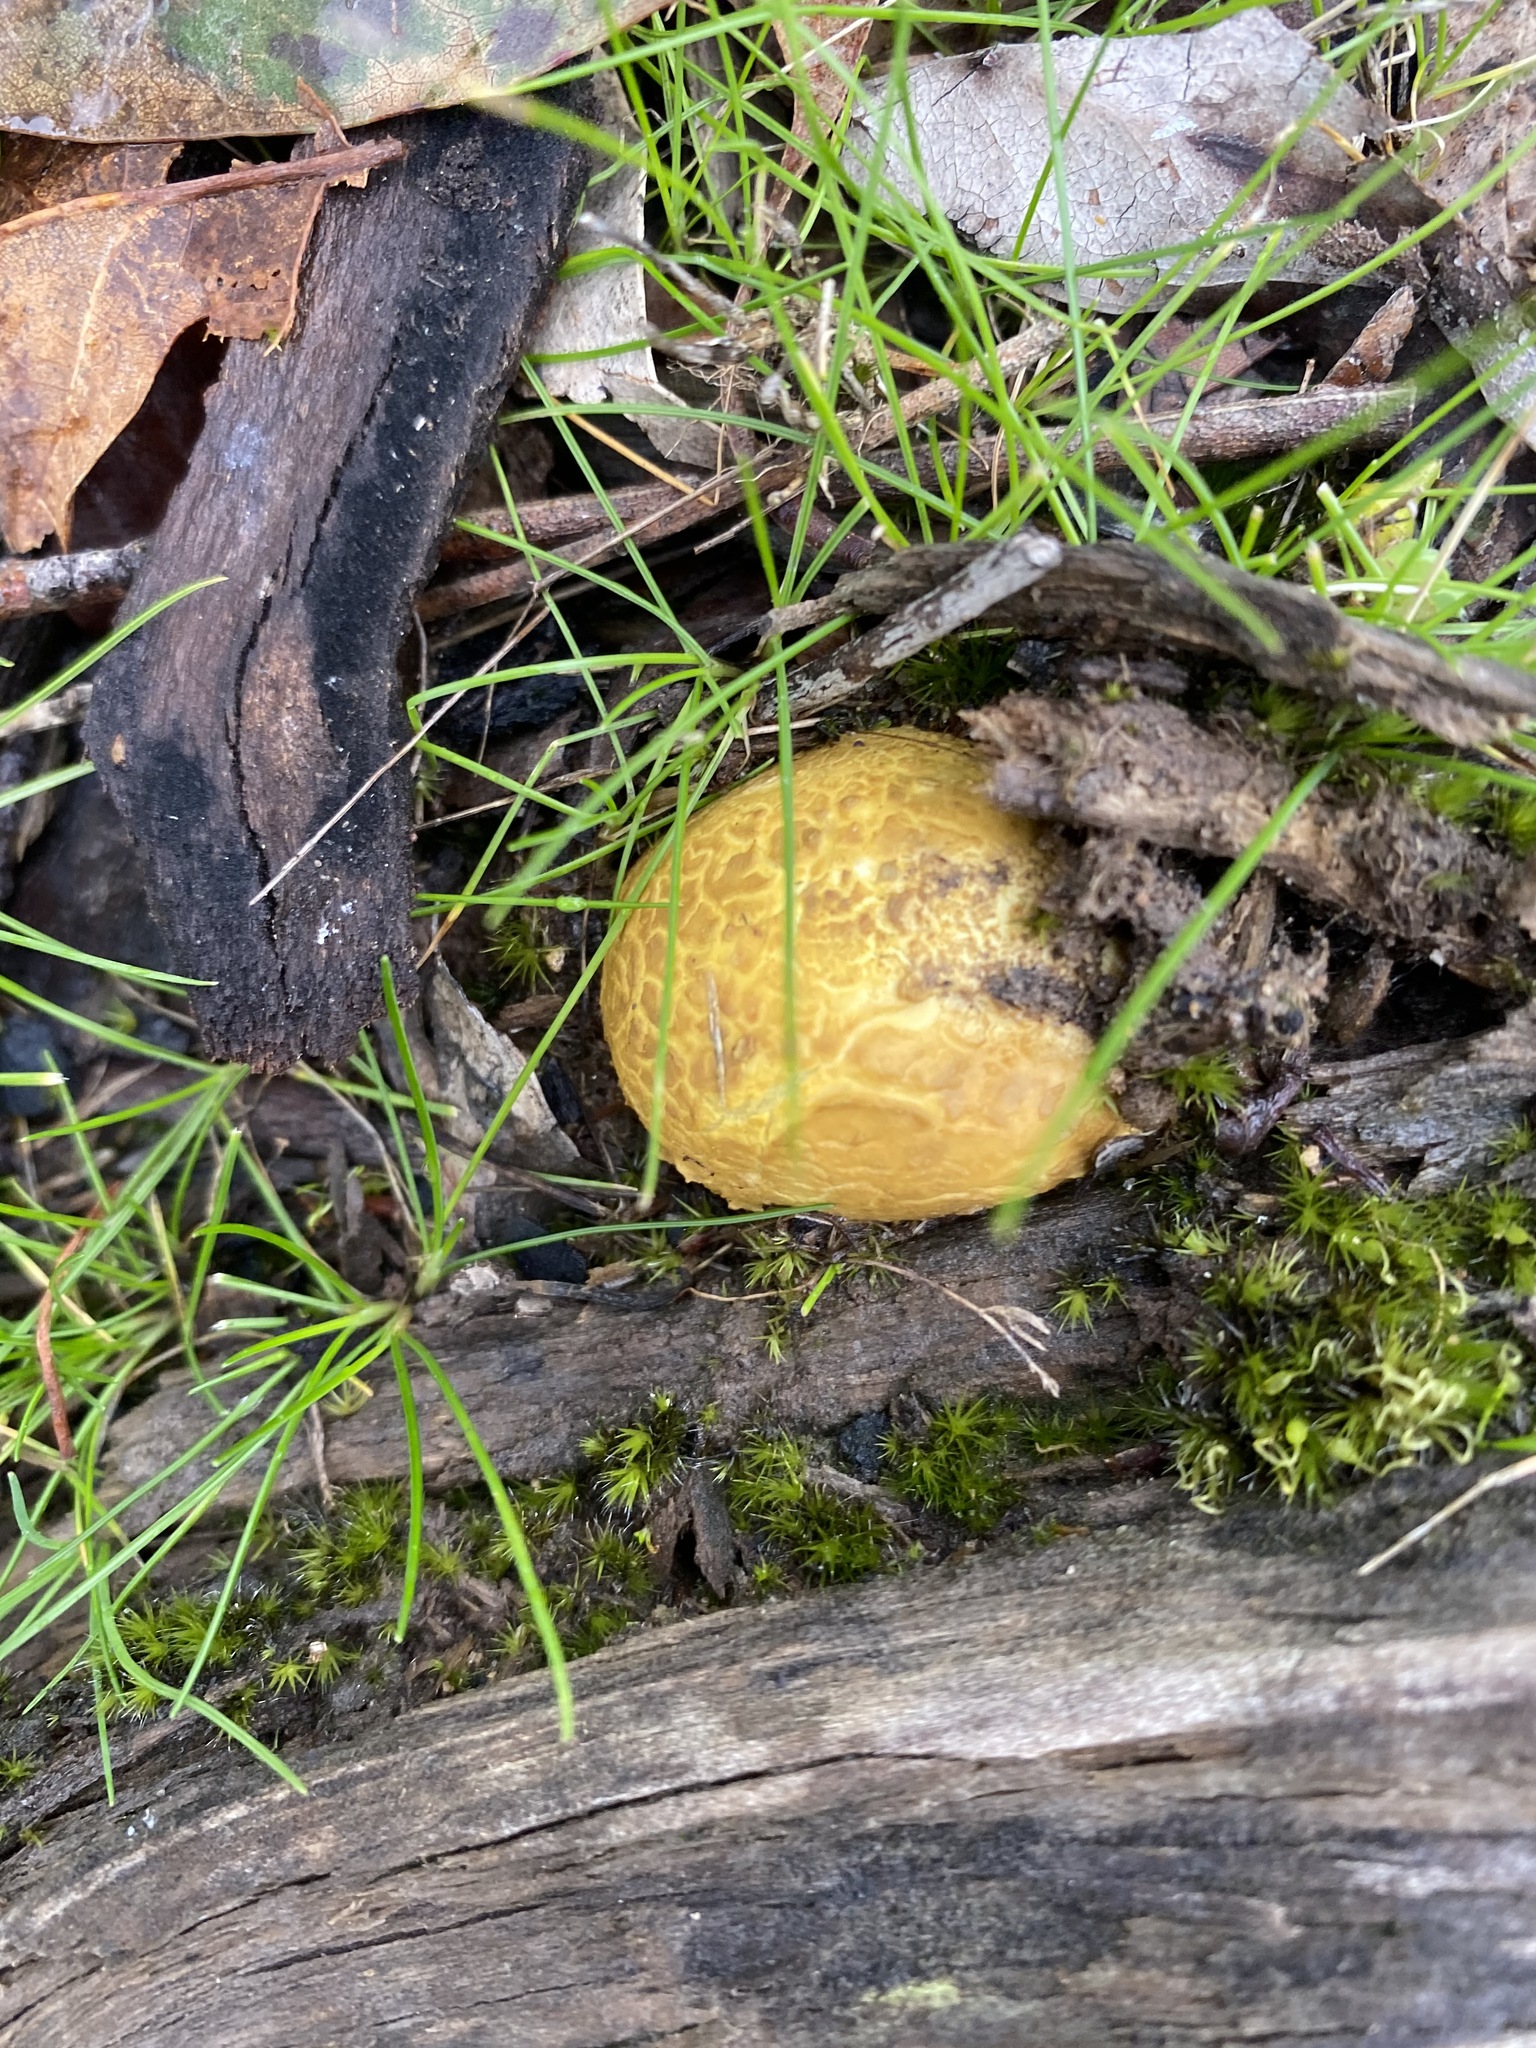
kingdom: Fungi
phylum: Basidiomycota
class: Agaricomycetes
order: Boletales
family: Sclerodermataceae
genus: Scleroderma
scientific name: Scleroderma cepa
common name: Onion earthball
